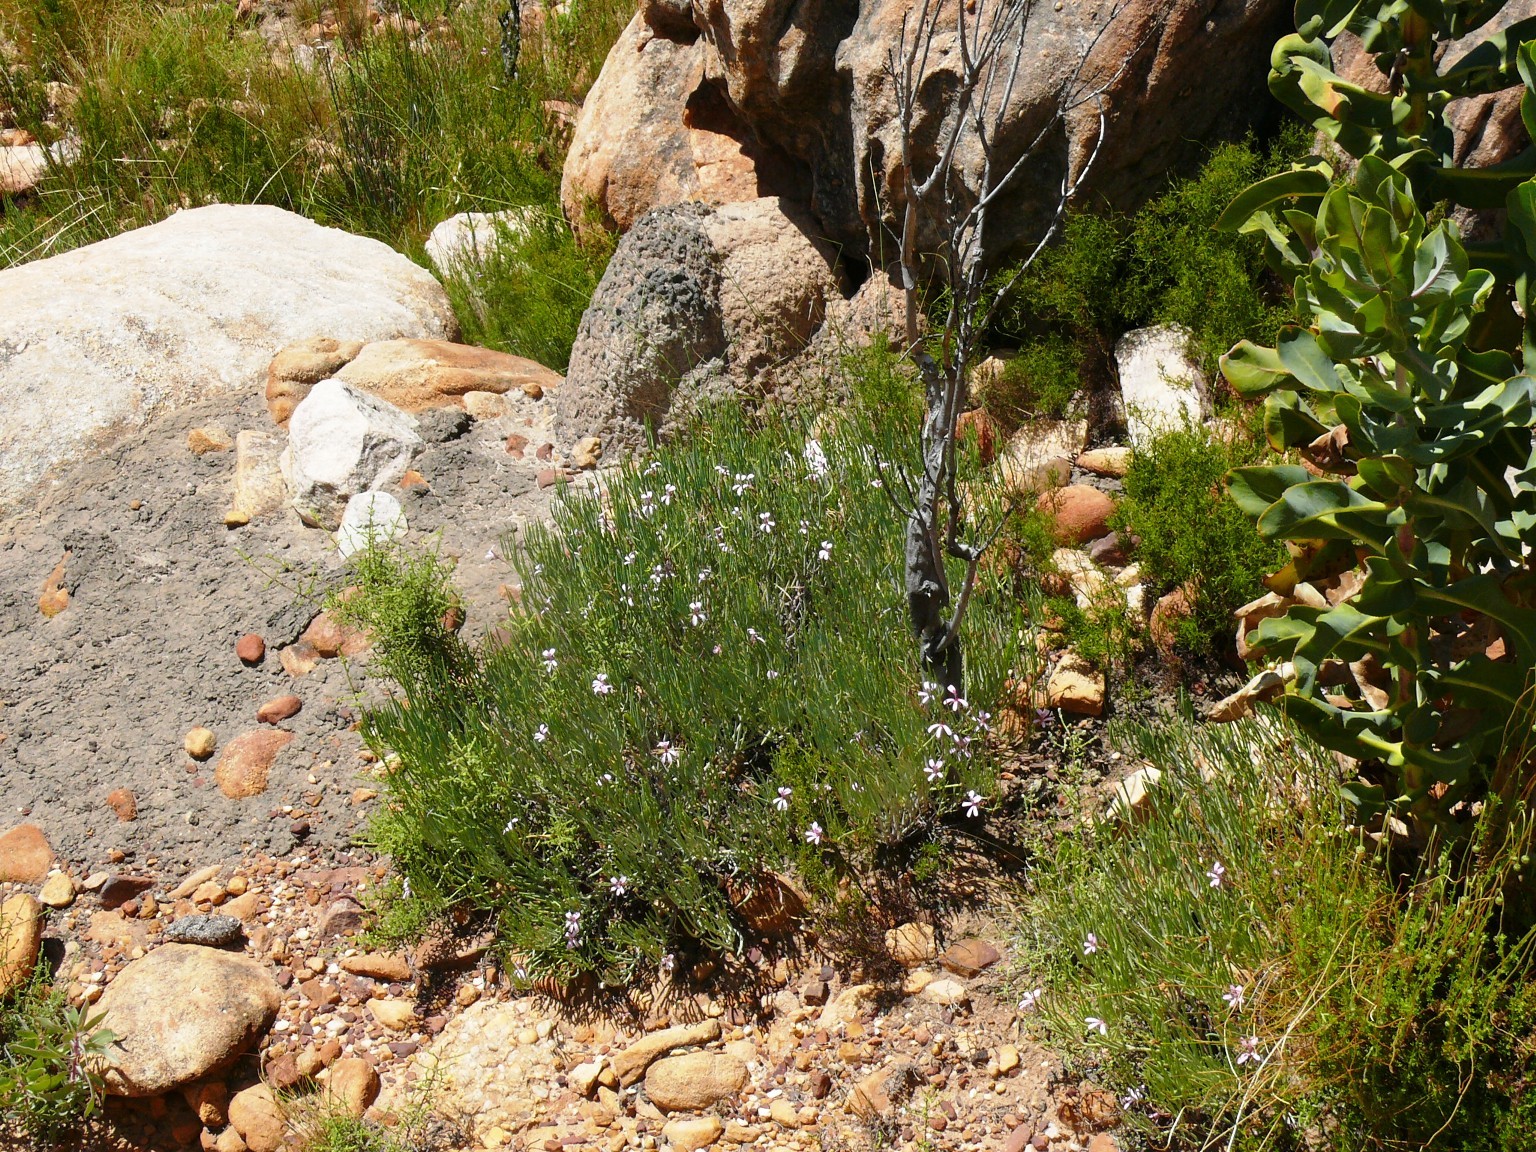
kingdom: Plantae
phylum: Tracheophyta
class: Magnoliopsida
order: Geraniales
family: Geraniaceae
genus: Pelargonium
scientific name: Pelargonium laevigatum
